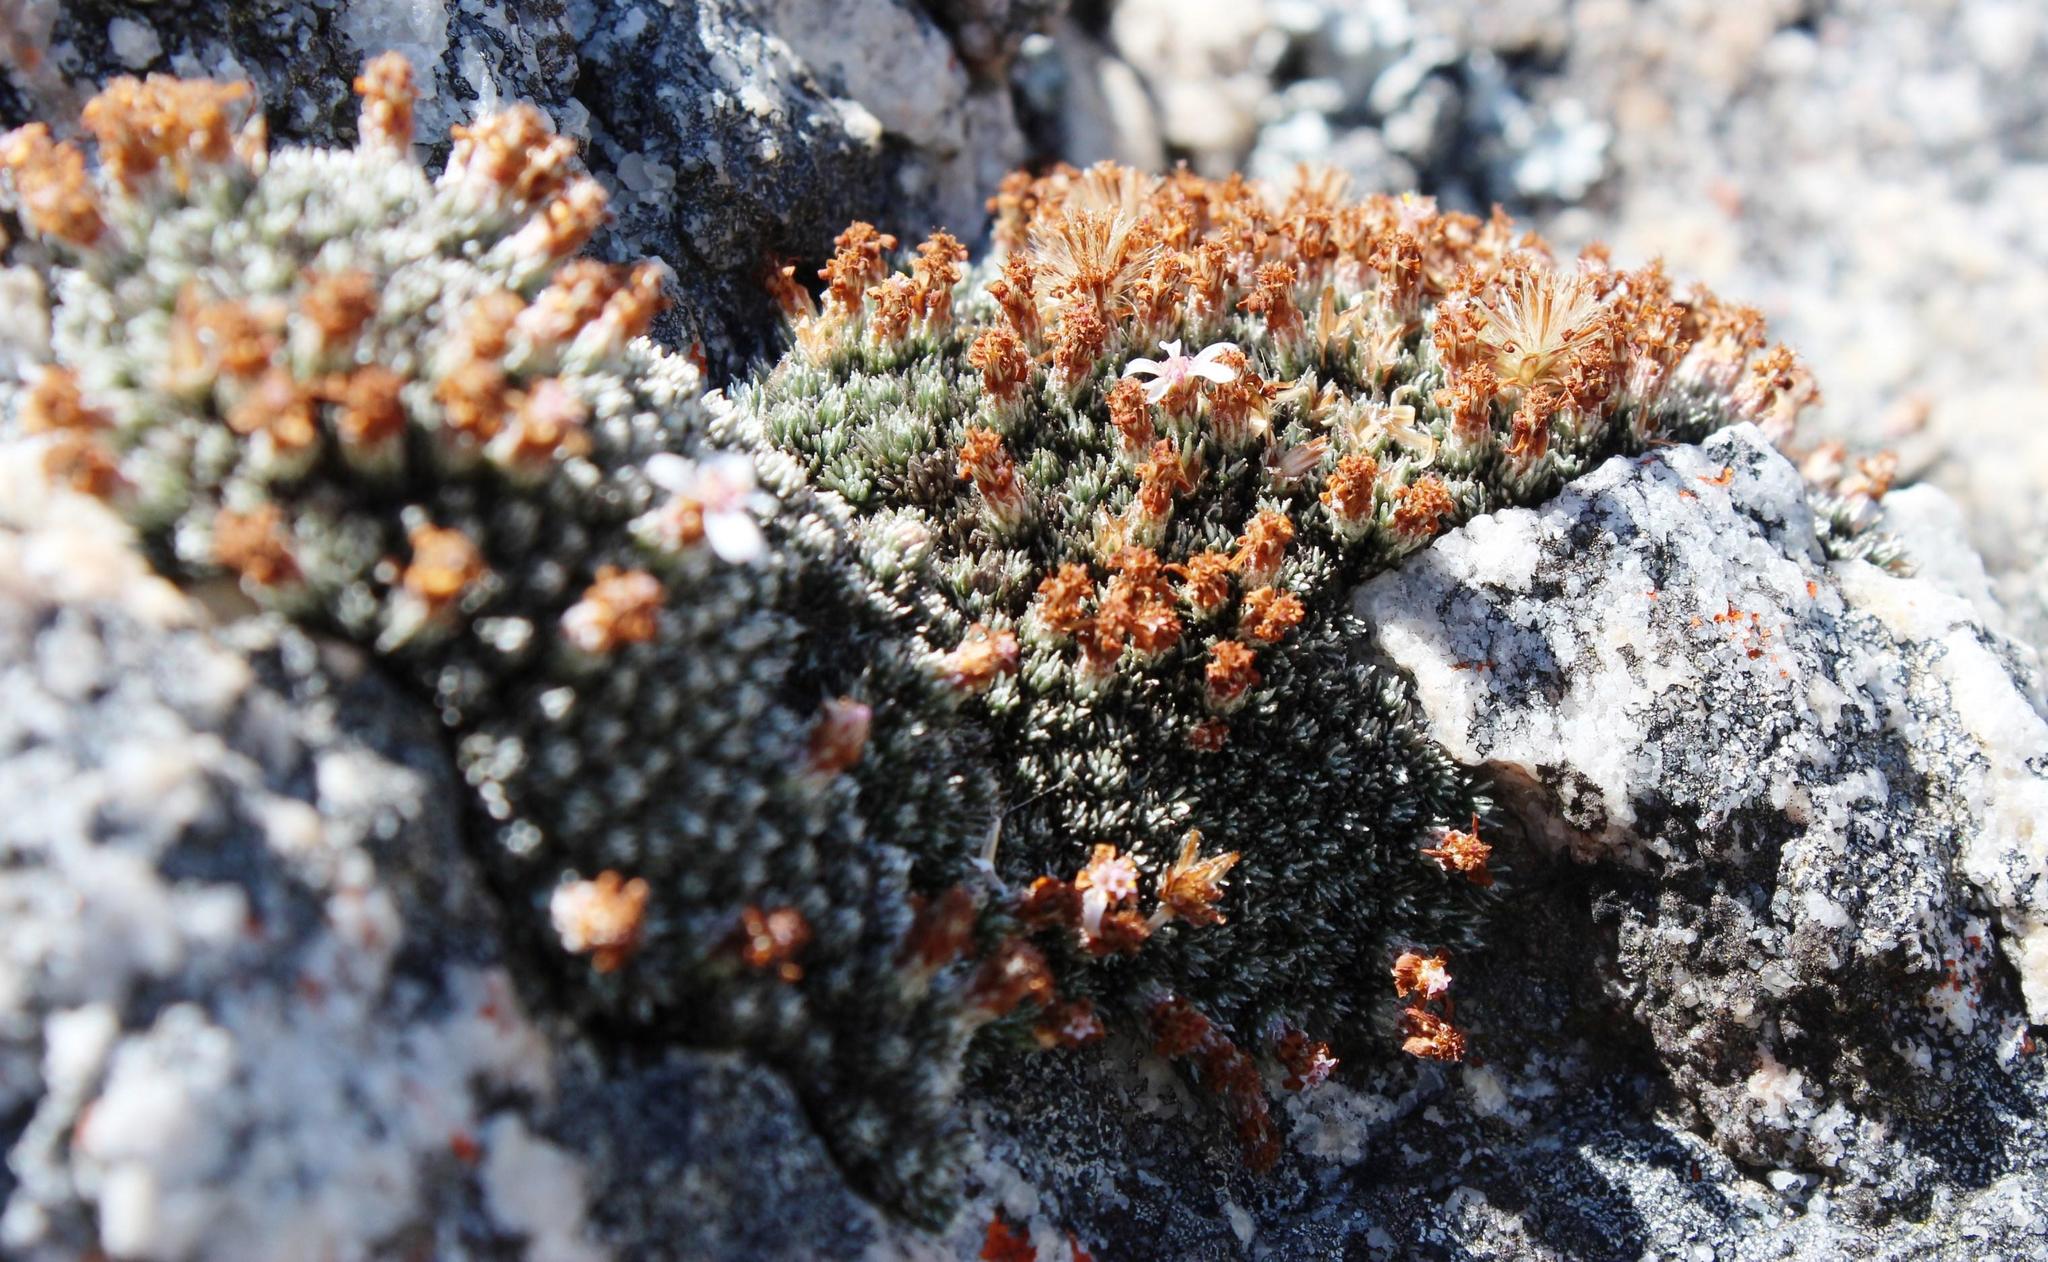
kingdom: Plantae
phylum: Tracheophyta
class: Magnoliopsida
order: Asterales
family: Asteraceae
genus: Muscosomorphe
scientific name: Muscosomorphe aretioides
